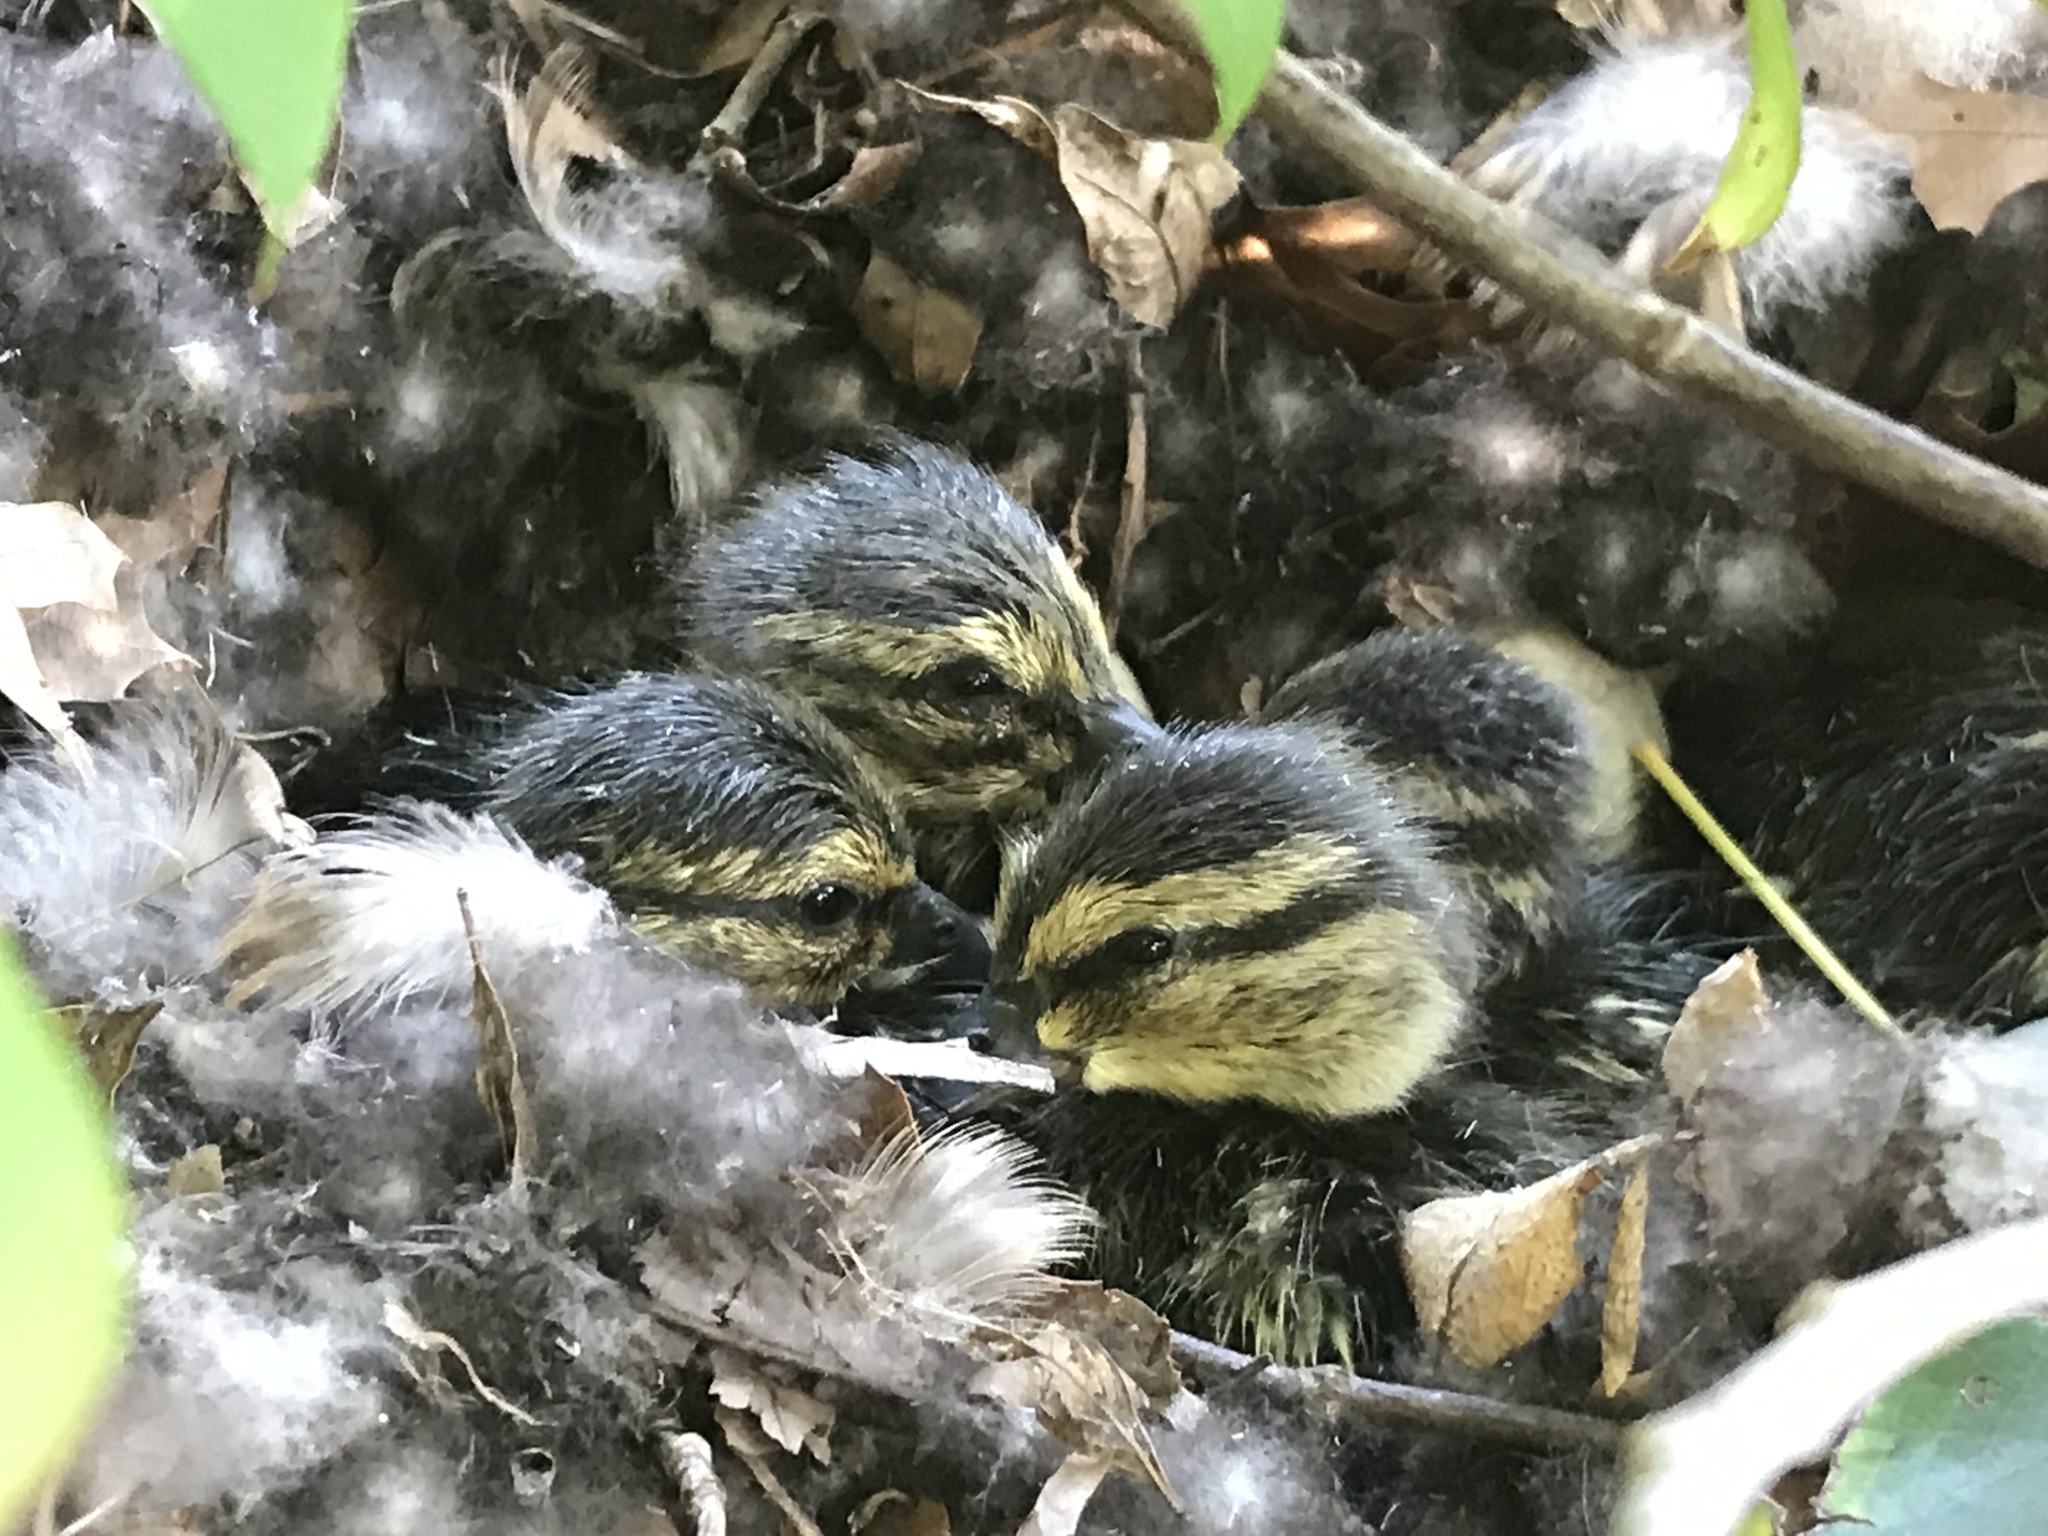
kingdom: Animalia
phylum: Chordata
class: Aves
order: Anseriformes
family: Anatidae
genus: Anas
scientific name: Anas platyrhynchos
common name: Mallard
